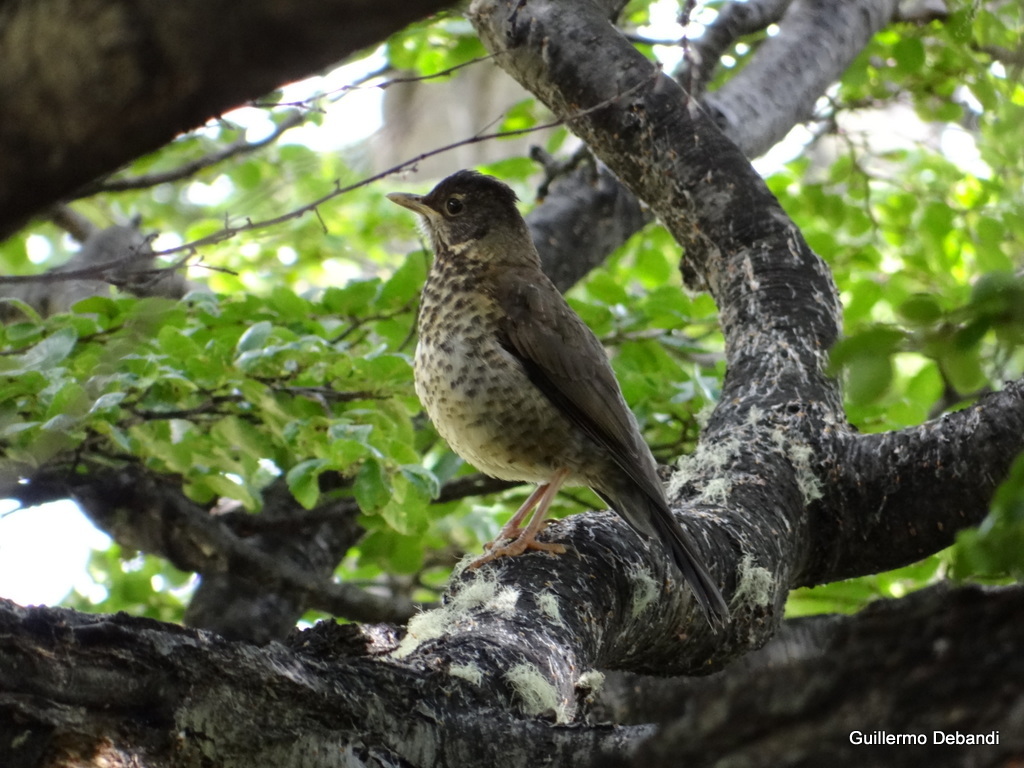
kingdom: Animalia
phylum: Chordata
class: Aves
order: Passeriformes
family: Turdidae
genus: Turdus
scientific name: Turdus falcklandii
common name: Austral thrush
